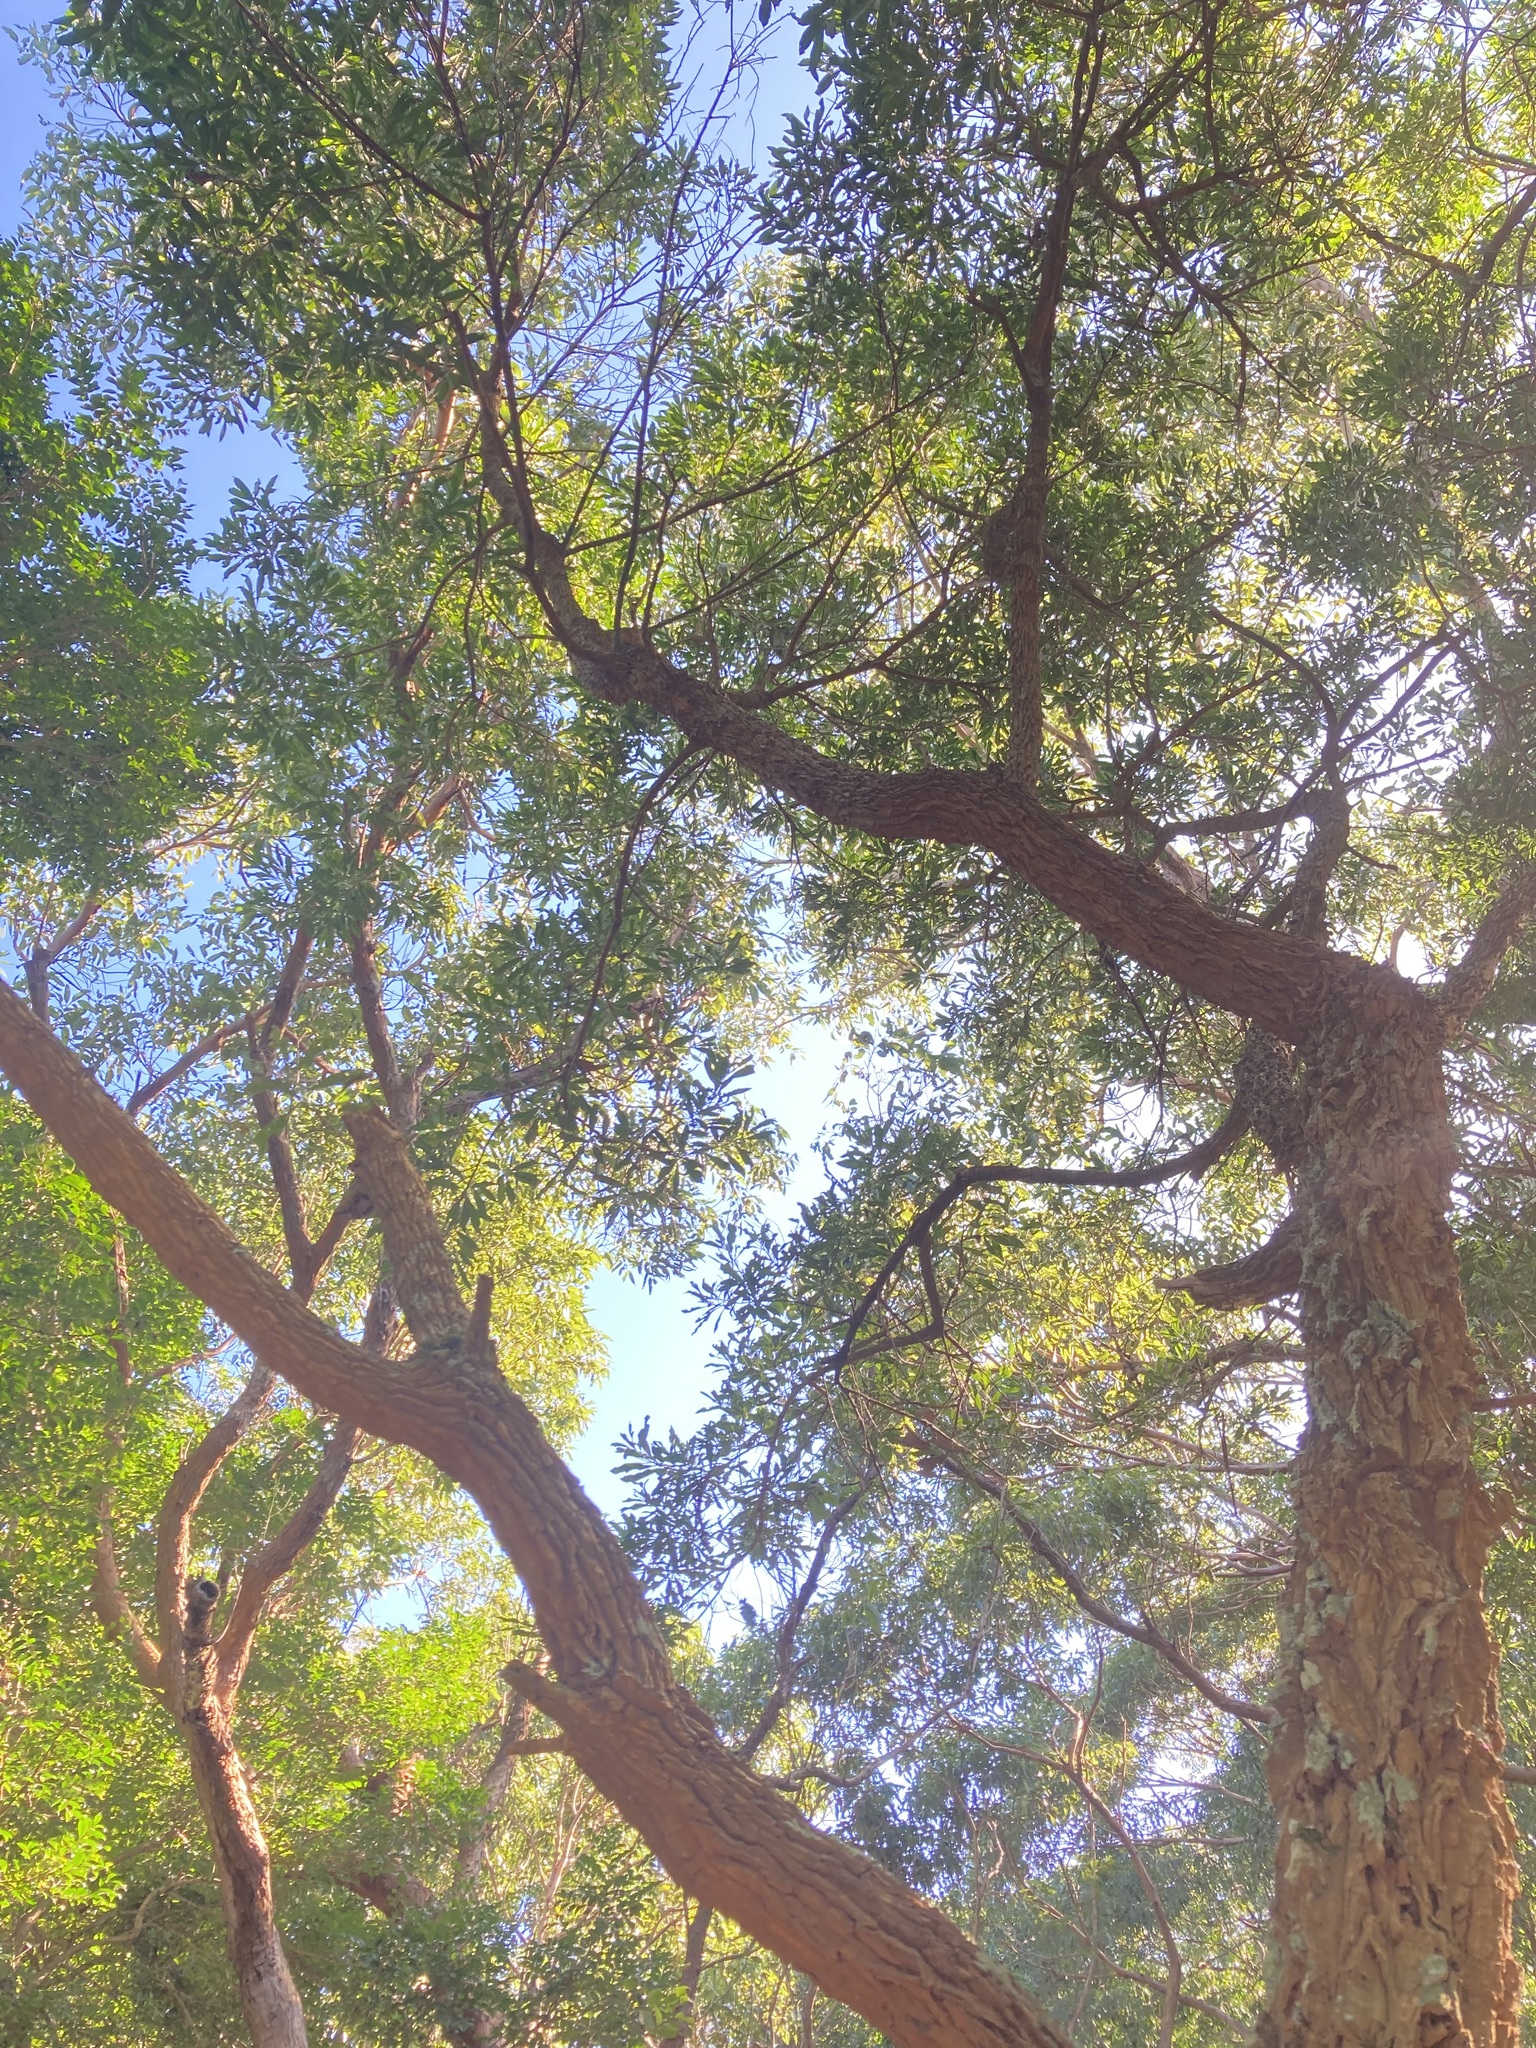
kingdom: Plantae
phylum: Tracheophyta
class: Magnoliopsida
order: Solanales
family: Solanaceae
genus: Duboisia
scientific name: Duboisia myoporoides
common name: Corkwoodtree
